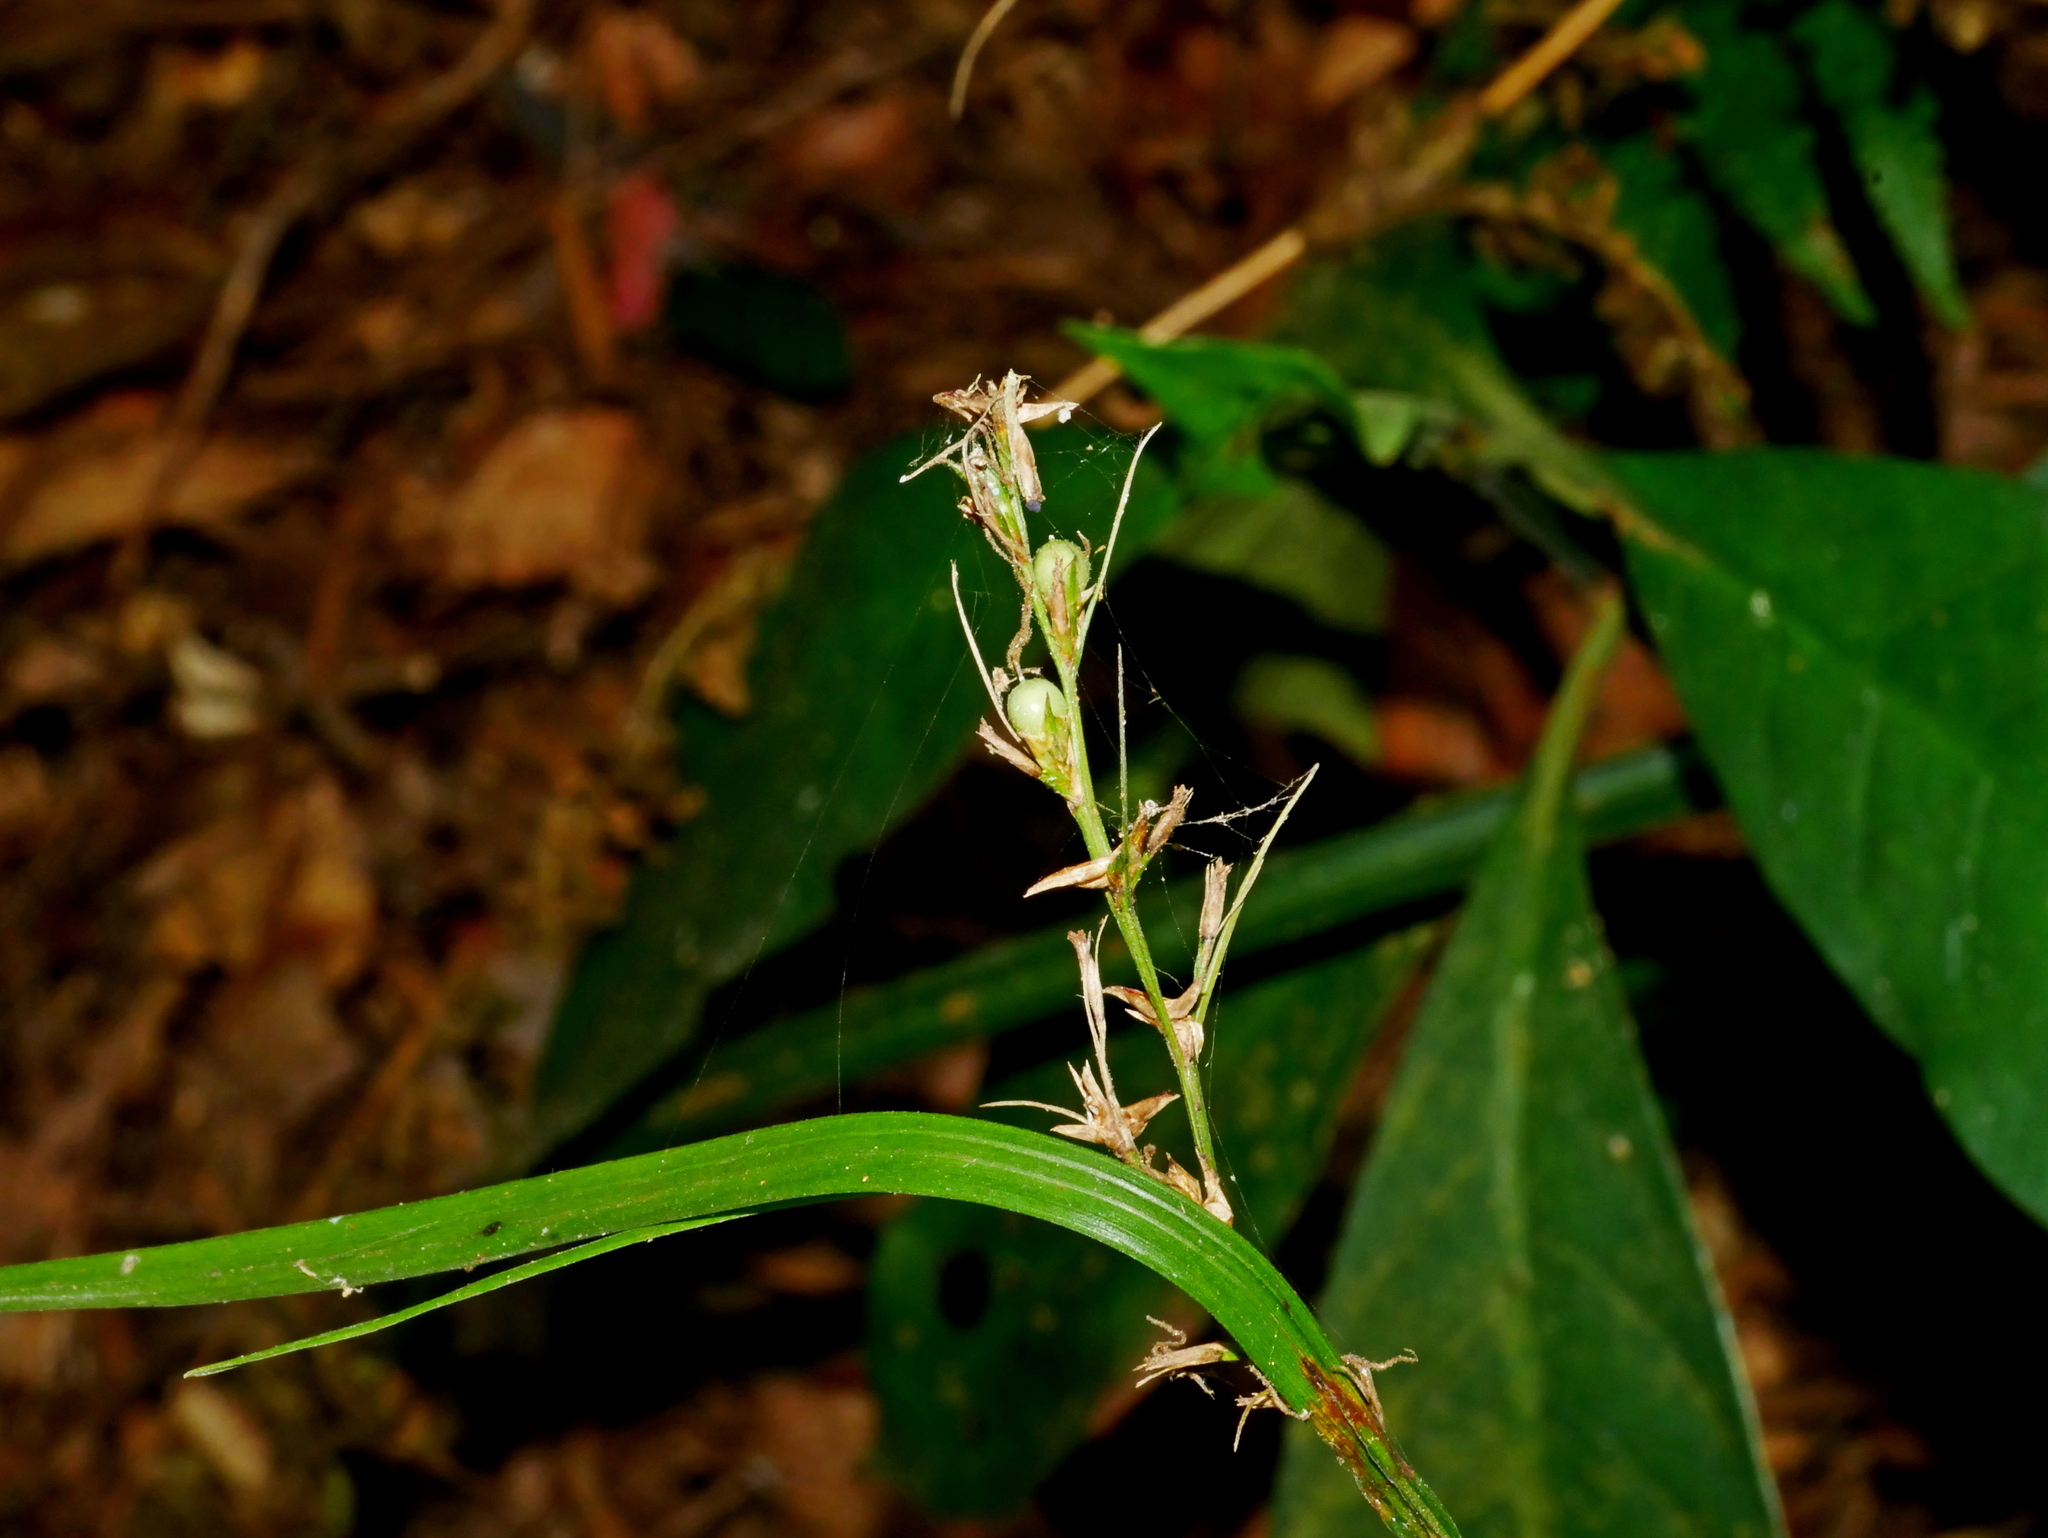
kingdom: Plantae
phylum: Tracheophyta
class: Liliopsida
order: Poales
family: Cyperaceae
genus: Scleria
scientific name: Scleria terrestris
